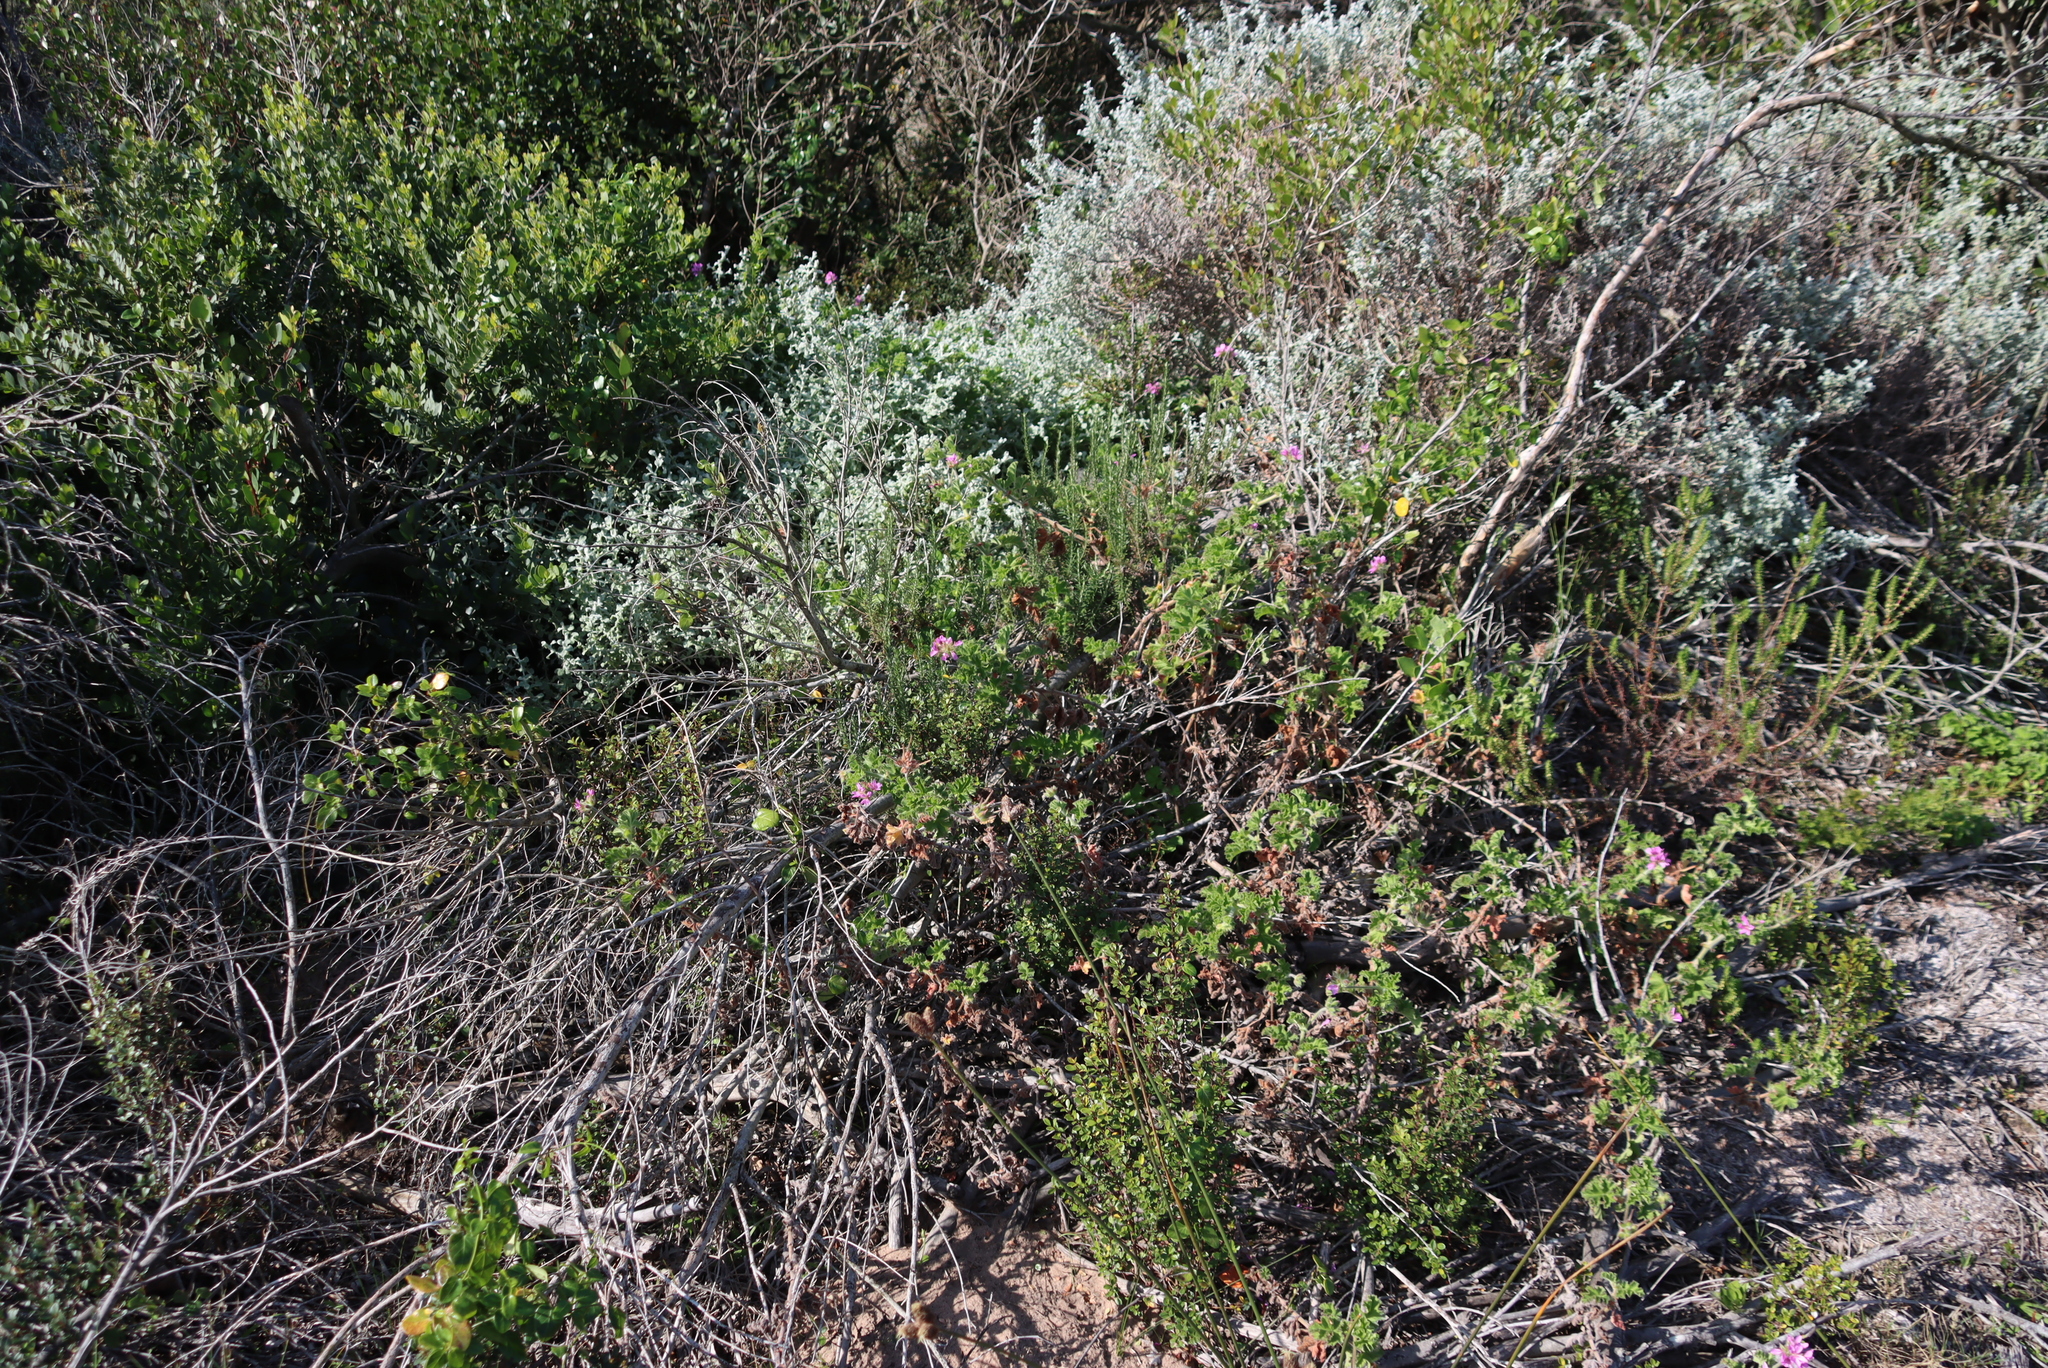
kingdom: Plantae
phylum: Tracheophyta
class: Magnoliopsida
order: Geraniales
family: Geraniaceae
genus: Pelargonium
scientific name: Pelargonium capitatum
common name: Rose scented geranium
